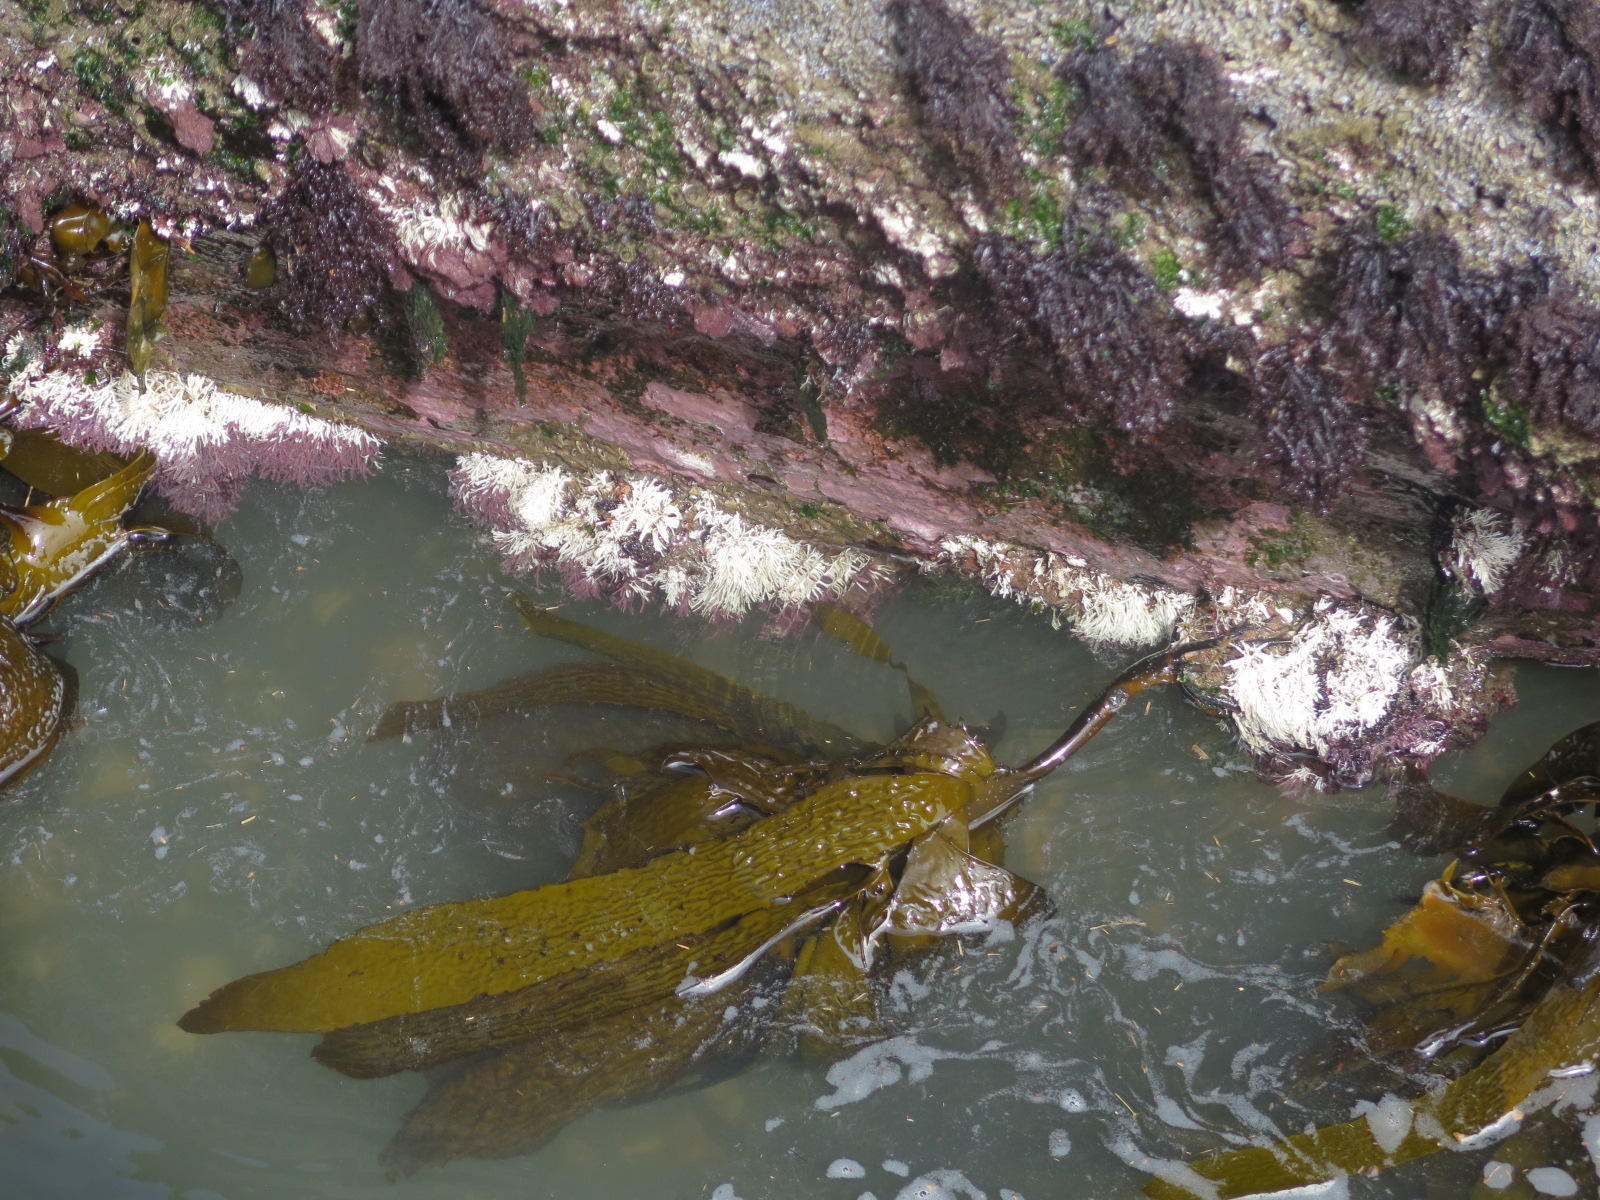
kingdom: Chromista
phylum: Ochrophyta
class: Phaeophyceae
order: Laminariales
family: Lessoniaceae
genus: Ecklonia
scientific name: Ecklonia radiata
